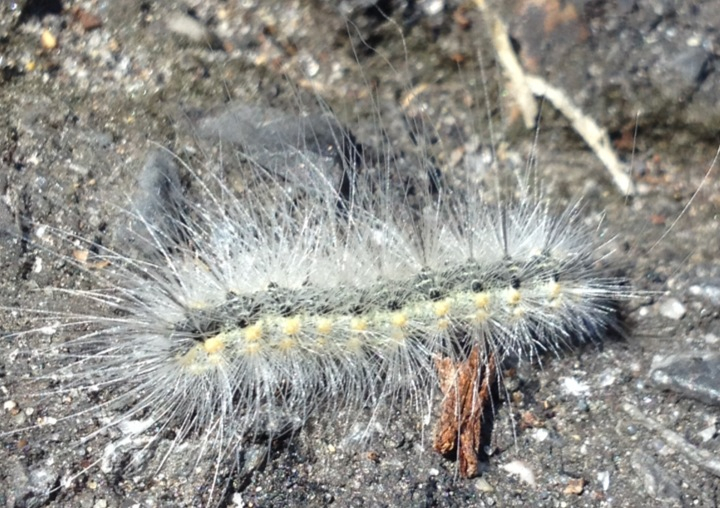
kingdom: Animalia
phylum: Arthropoda
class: Insecta
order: Lepidoptera
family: Erebidae
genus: Hyphantria
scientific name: Hyphantria cunea
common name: American white moth
